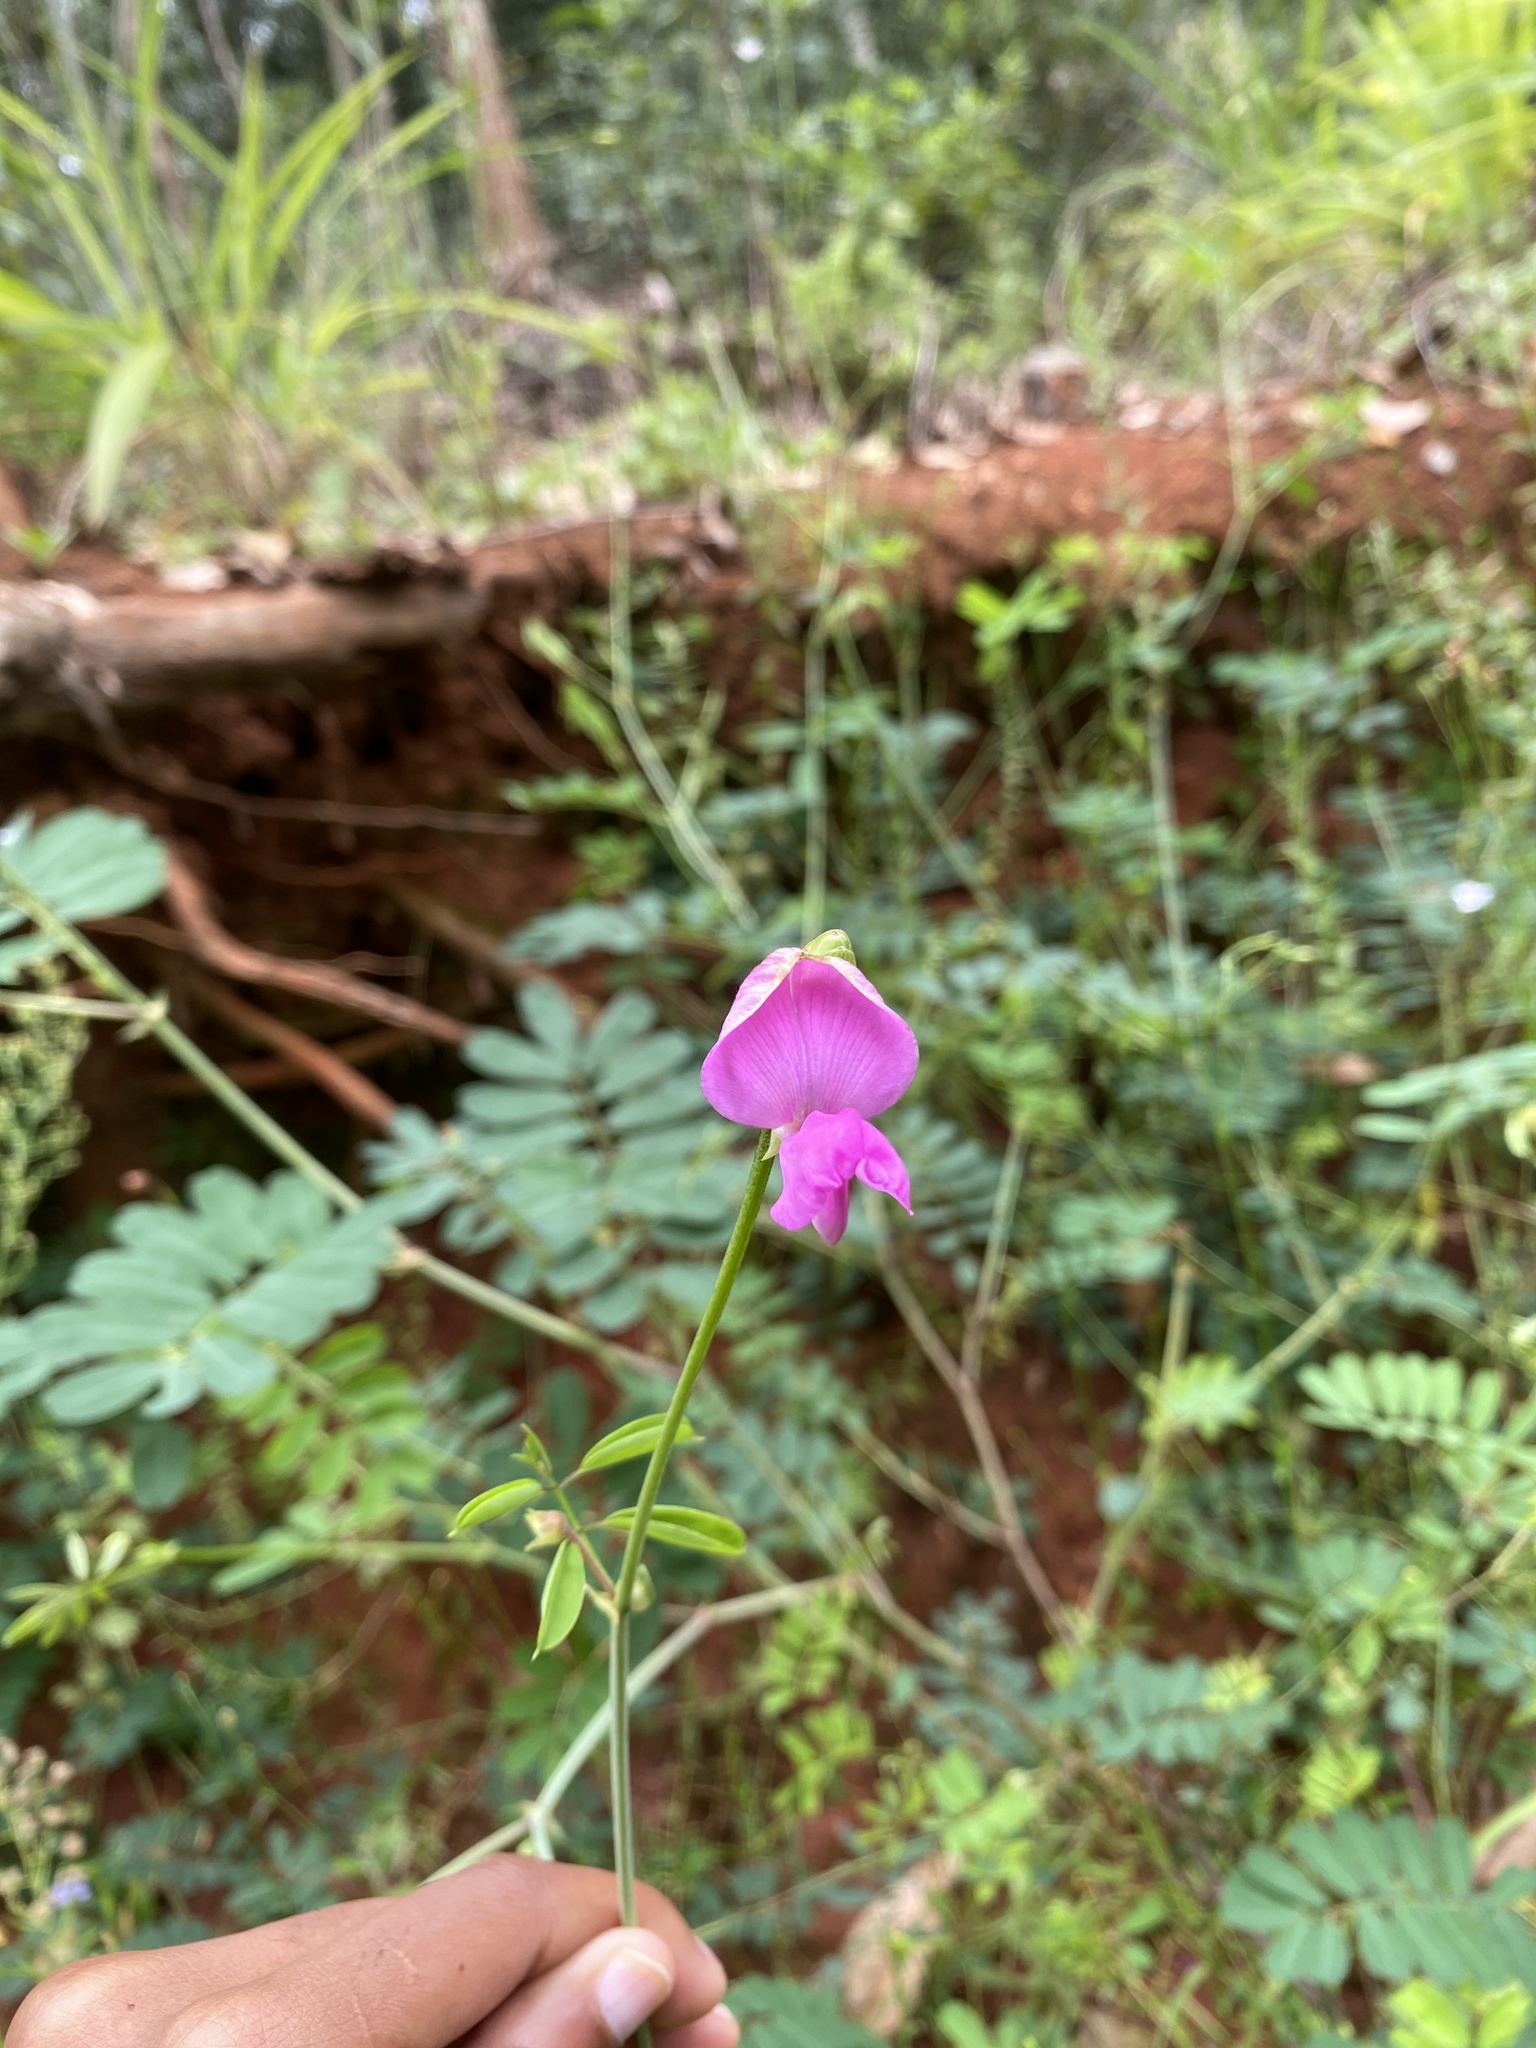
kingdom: Plantae
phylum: Tracheophyta
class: Magnoliopsida
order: Fabales
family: Fabaceae
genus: Tephrosia
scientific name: Tephrosia subulata
